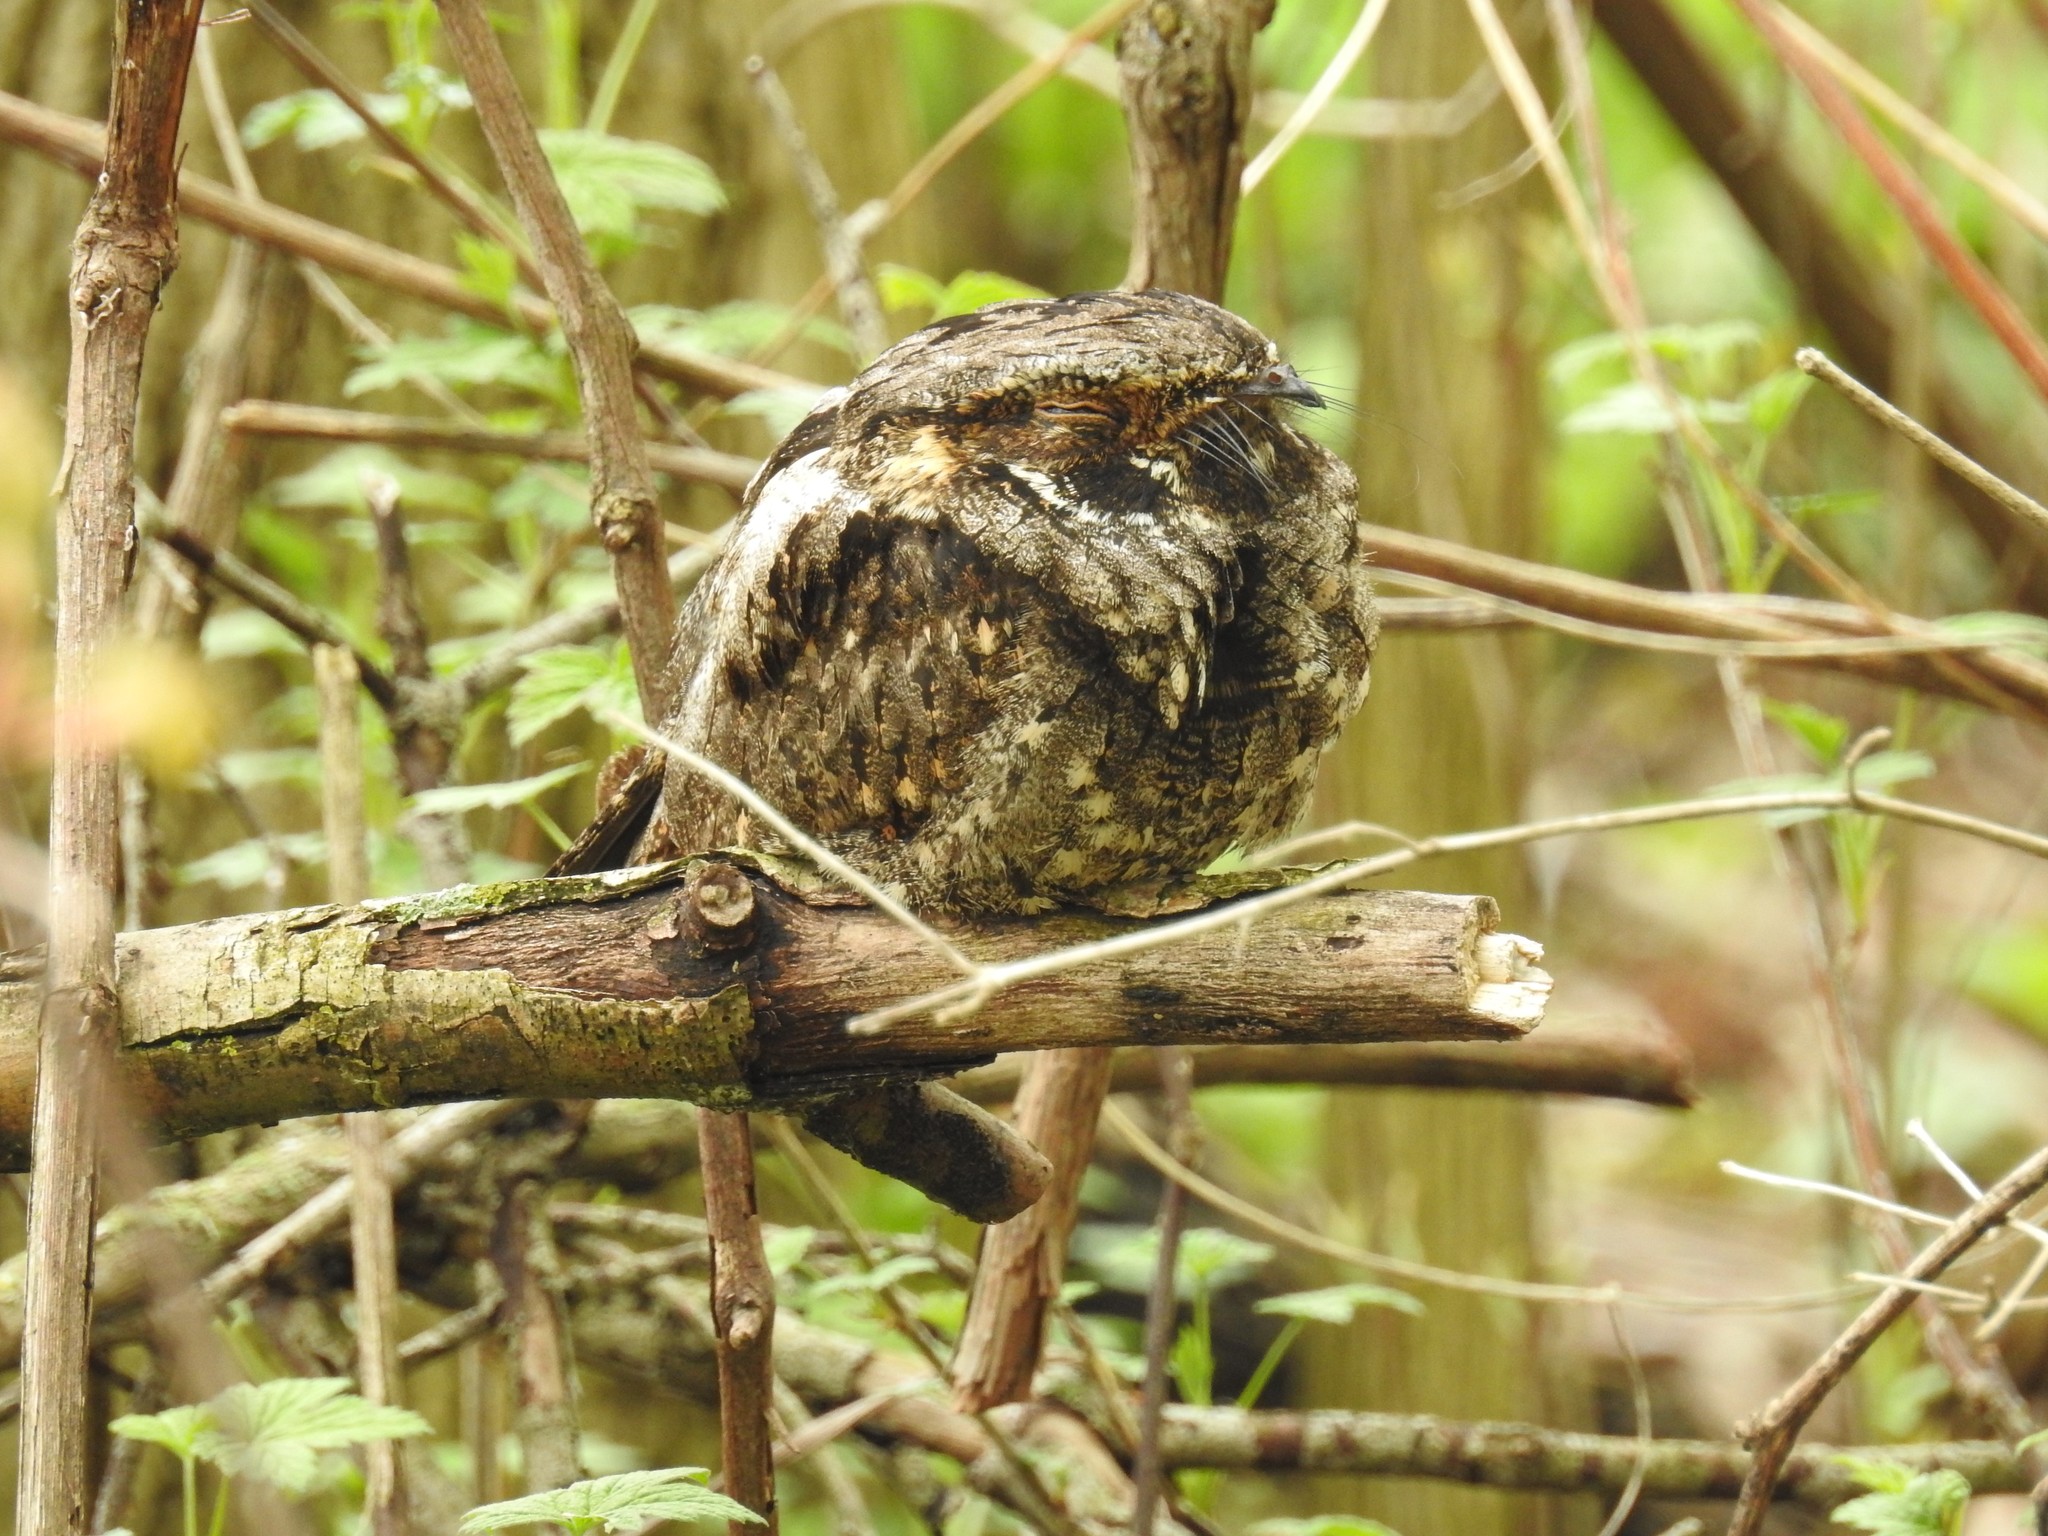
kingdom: Animalia
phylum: Chordata
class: Aves
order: Caprimulgiformes
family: Caprimulgidae
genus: Antrostomus
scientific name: Antrostomus vociferus
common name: Eastern whip-poor-will
